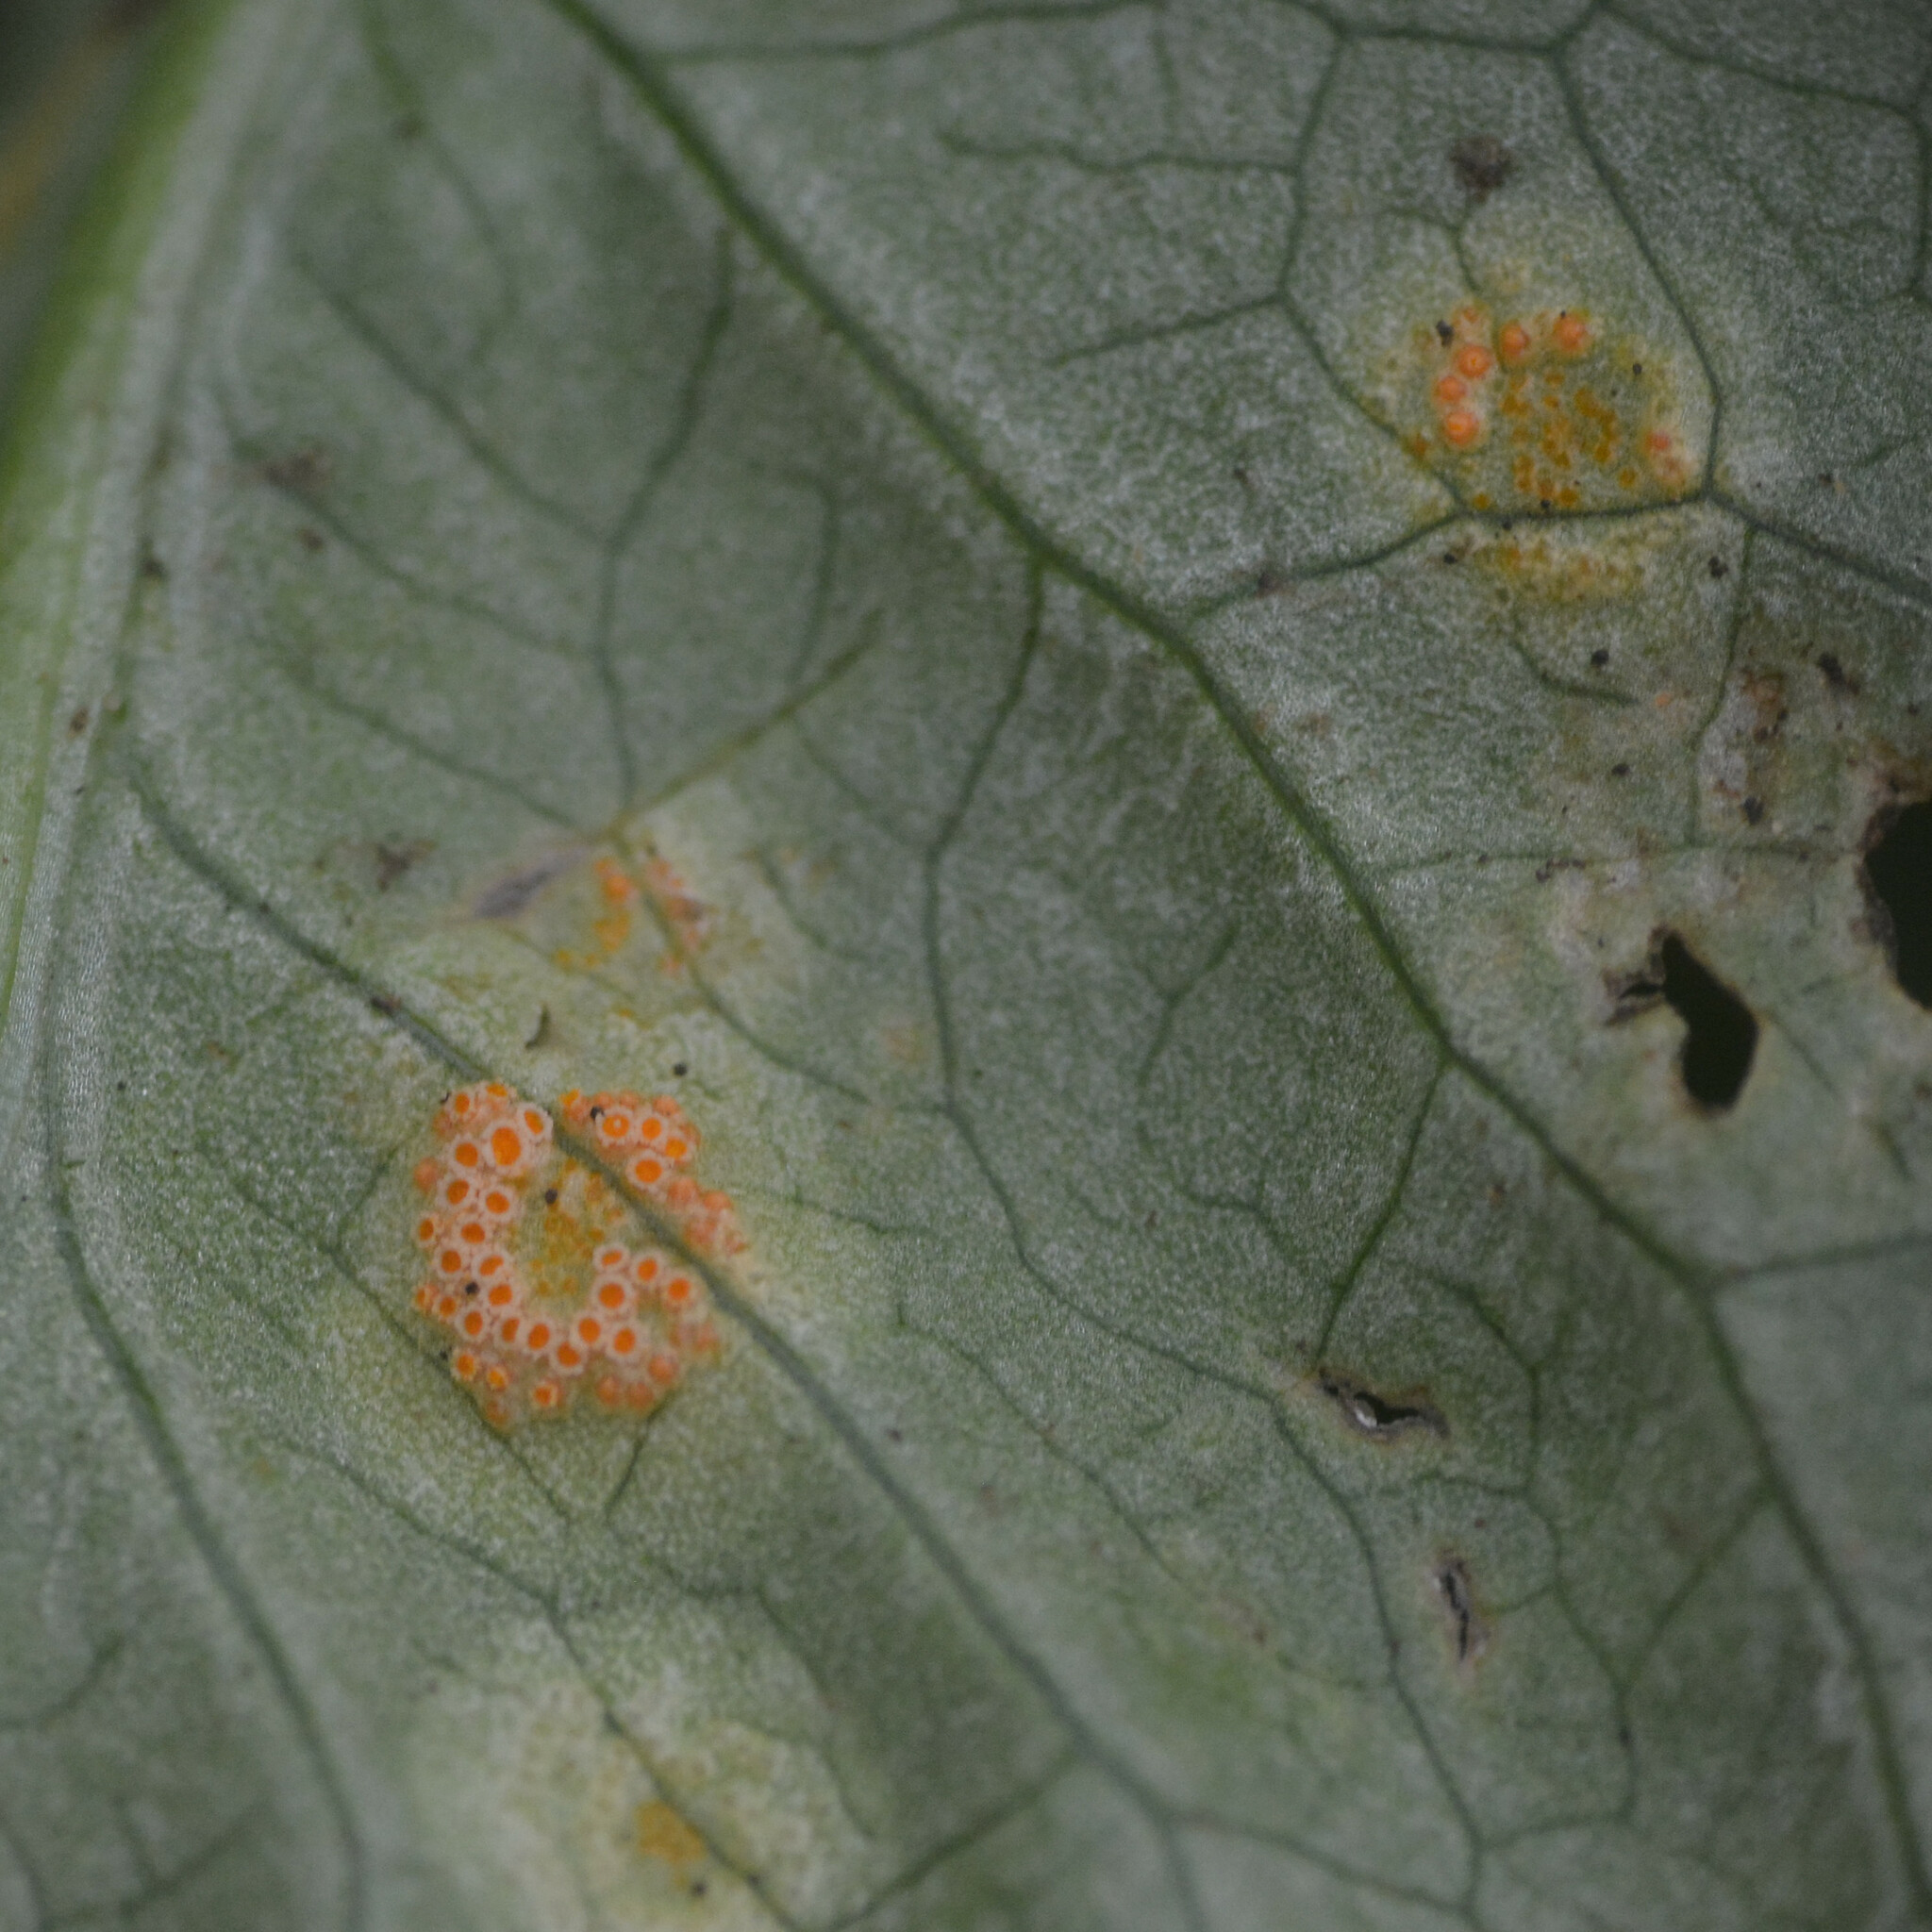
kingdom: Fungi
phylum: Basidiomycota
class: Pucciniomycetes
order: Pucciniales
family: Pucciniaceae
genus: Puccinia
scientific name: Puccinia sessilis
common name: Arum rust
